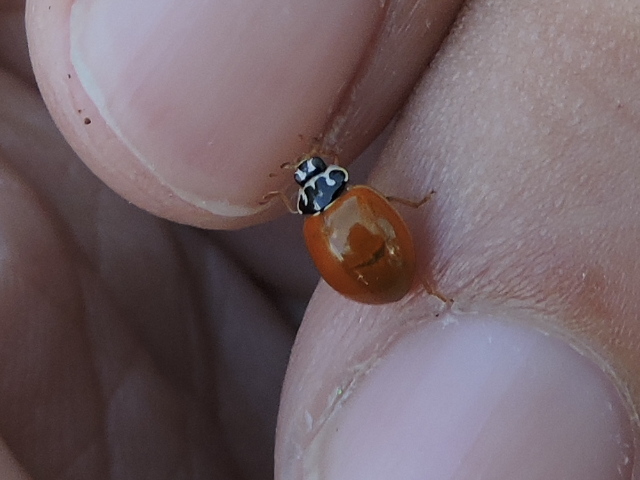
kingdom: Animalia
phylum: Arthropoda
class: Insecta
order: Coleoptera
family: Coccinellidae
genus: Cycloneda
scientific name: Cycloneda munda
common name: Polished lady beetle
